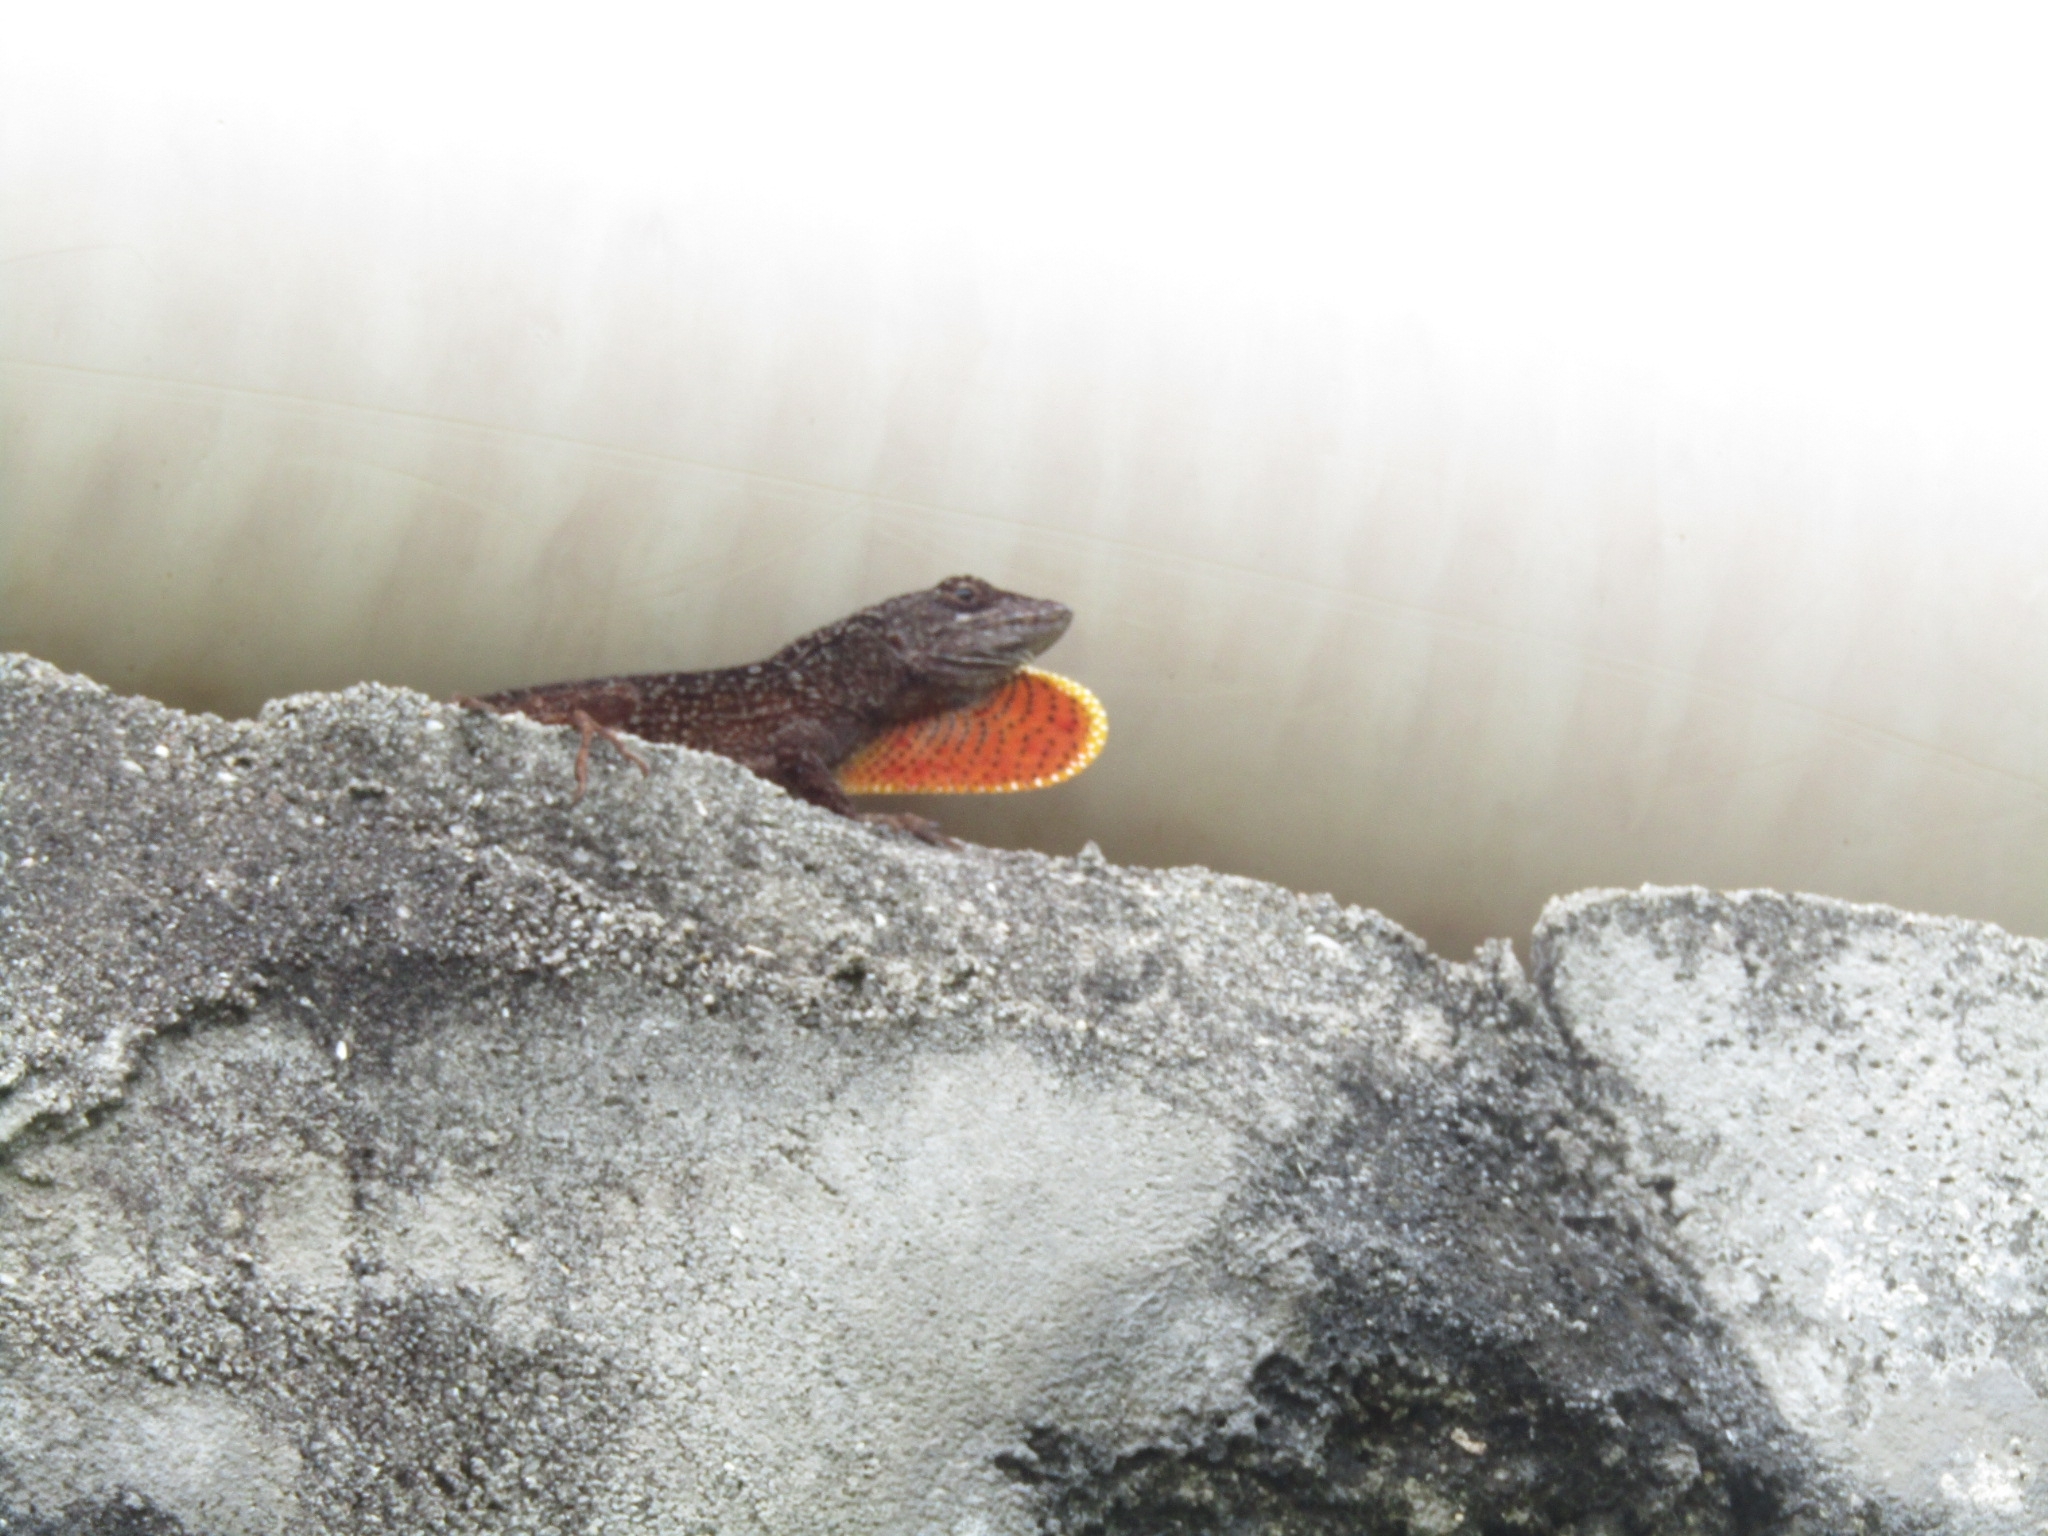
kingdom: Animalia
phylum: Chordata
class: Squamata
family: Dactyloidae
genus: Anolis
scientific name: Anolis sagrei
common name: Brown anole
